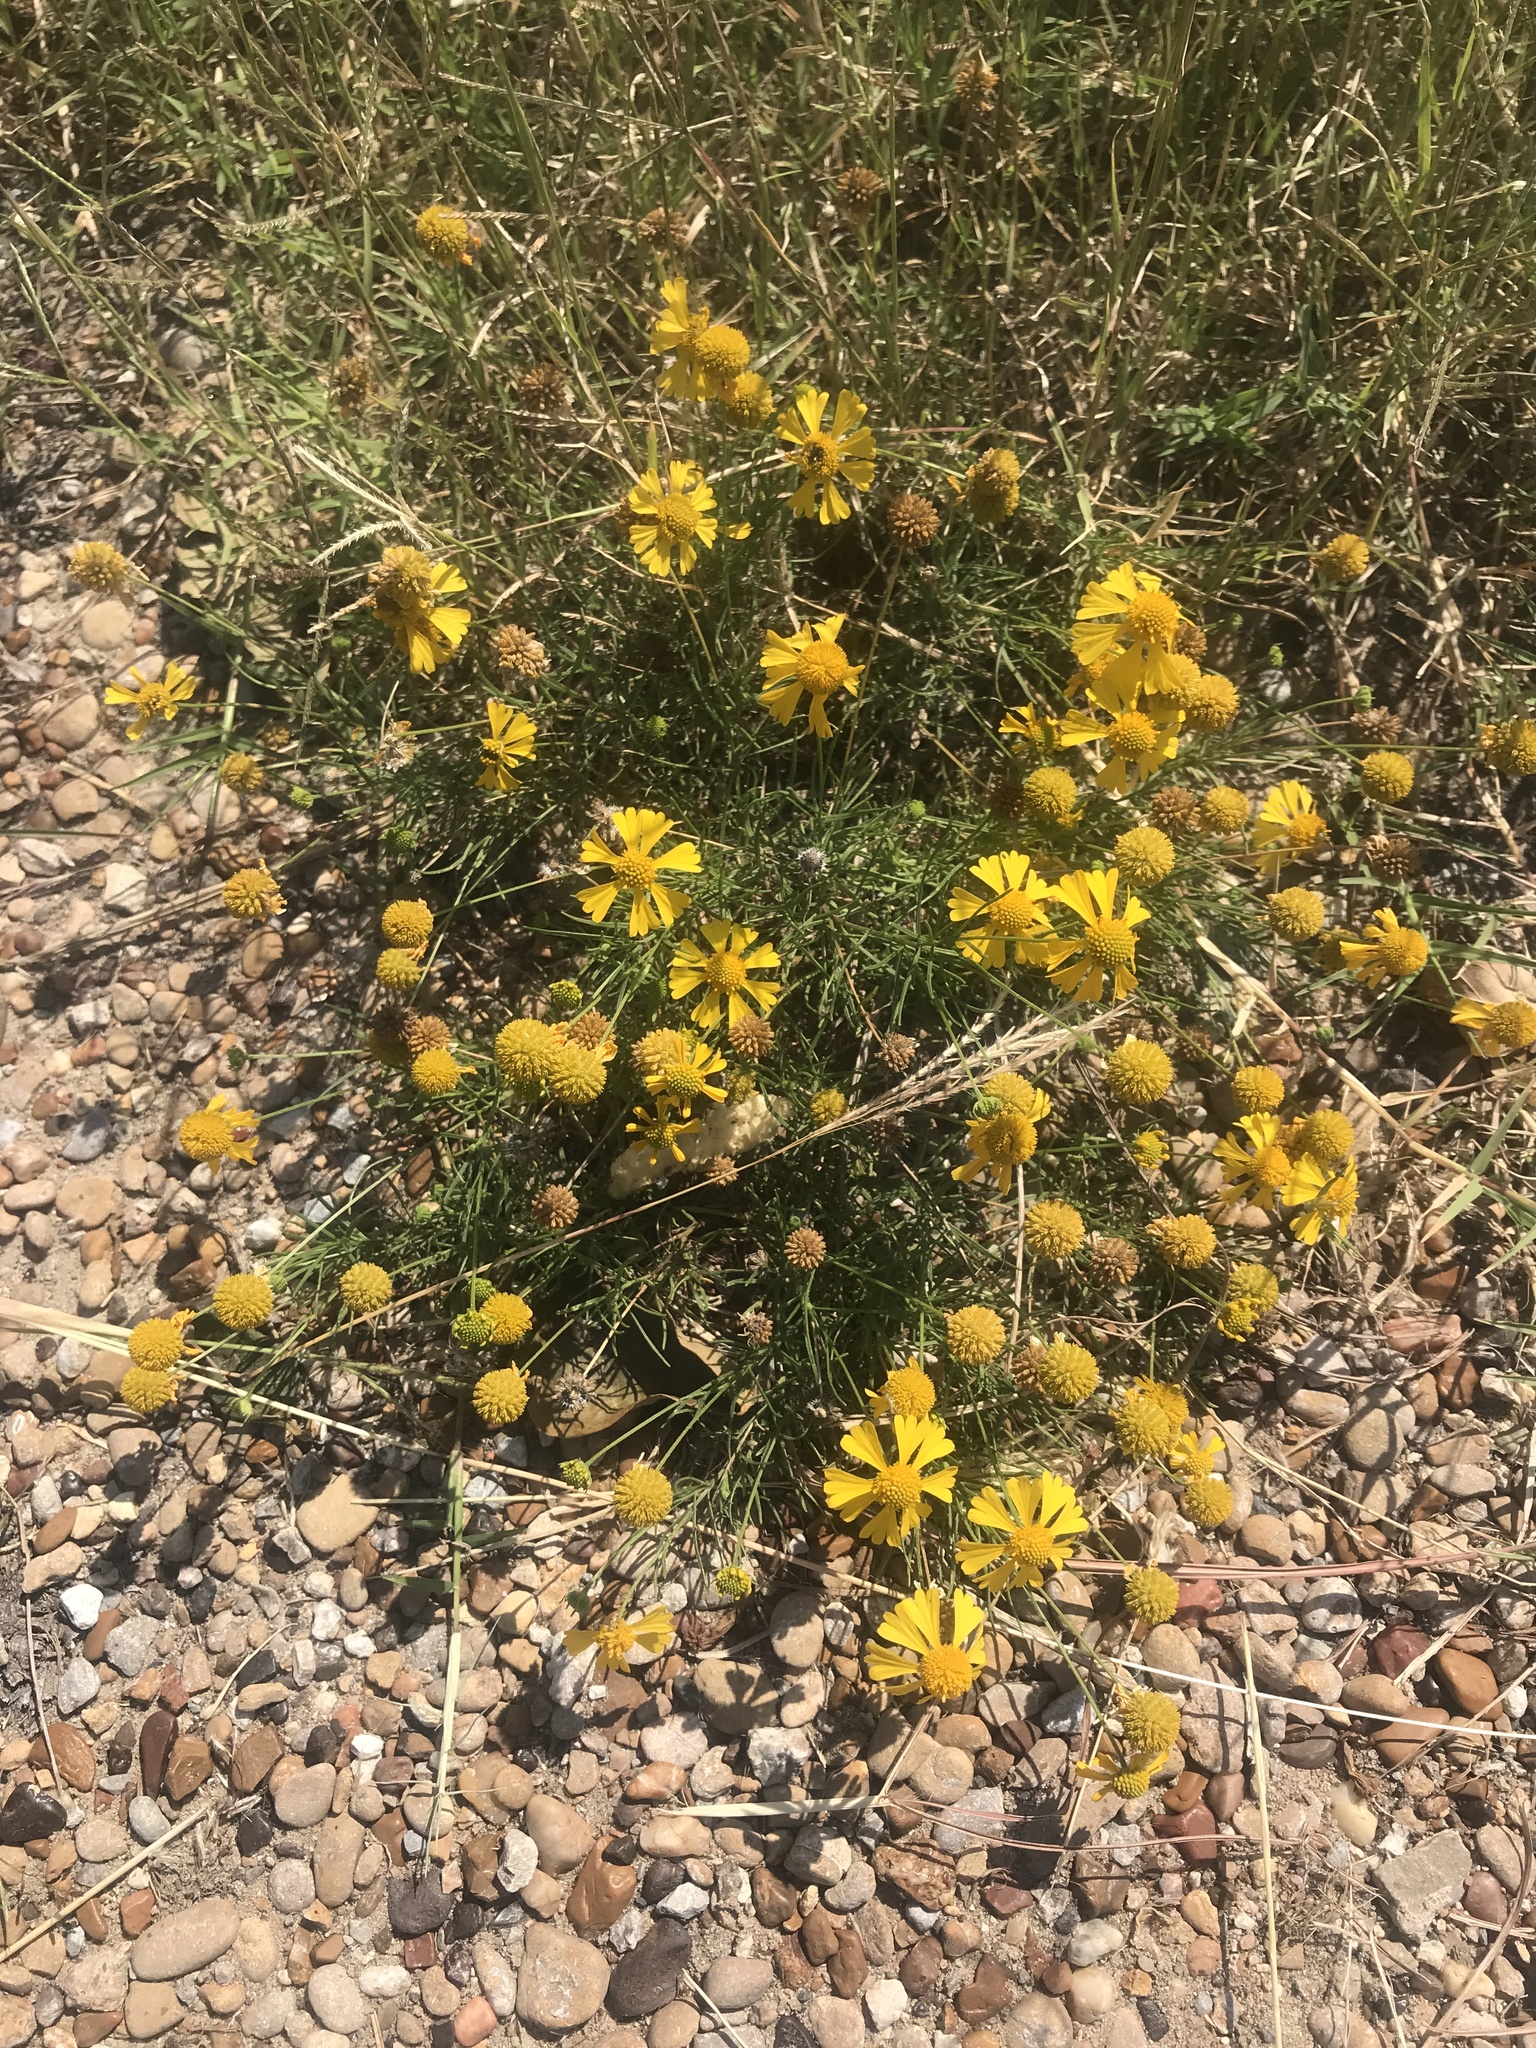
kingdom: Plantae
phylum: Tracheophyta
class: Magnoliopsida
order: Asterales
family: Asteraceae
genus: Helenium
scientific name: Helenium amarum
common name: Bitter sneezeweed
